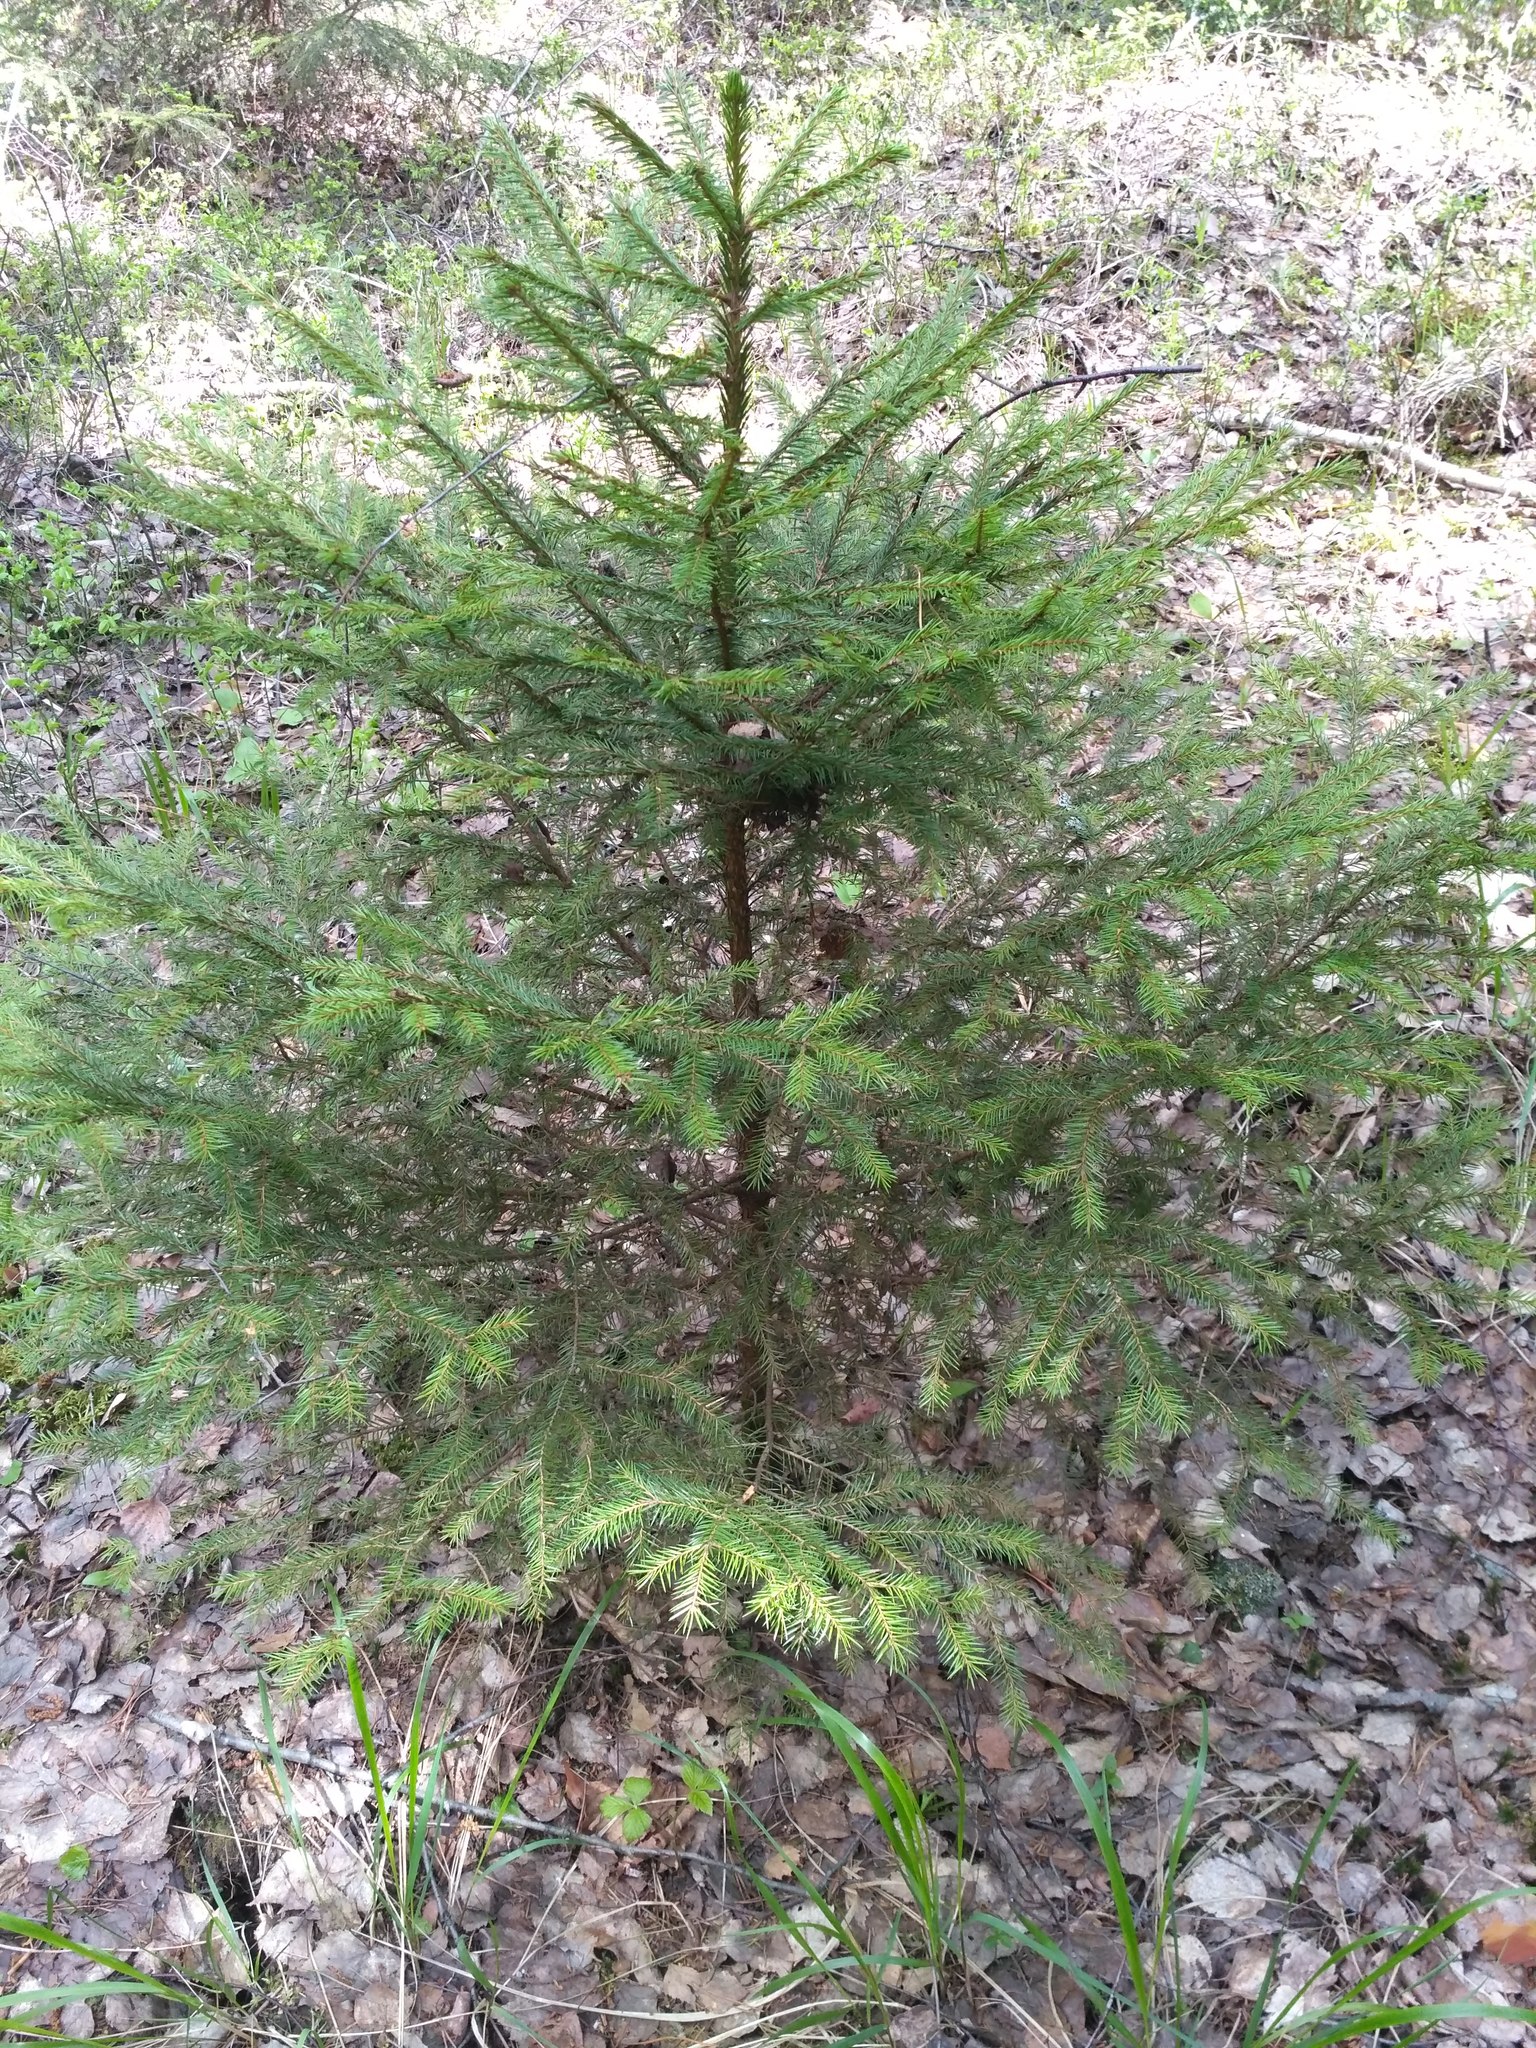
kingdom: Plantae
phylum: Tracheophyta
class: Pinopsida
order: Pinales
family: Pinaceae
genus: Picea
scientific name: Picea abies
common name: Norway spruce
